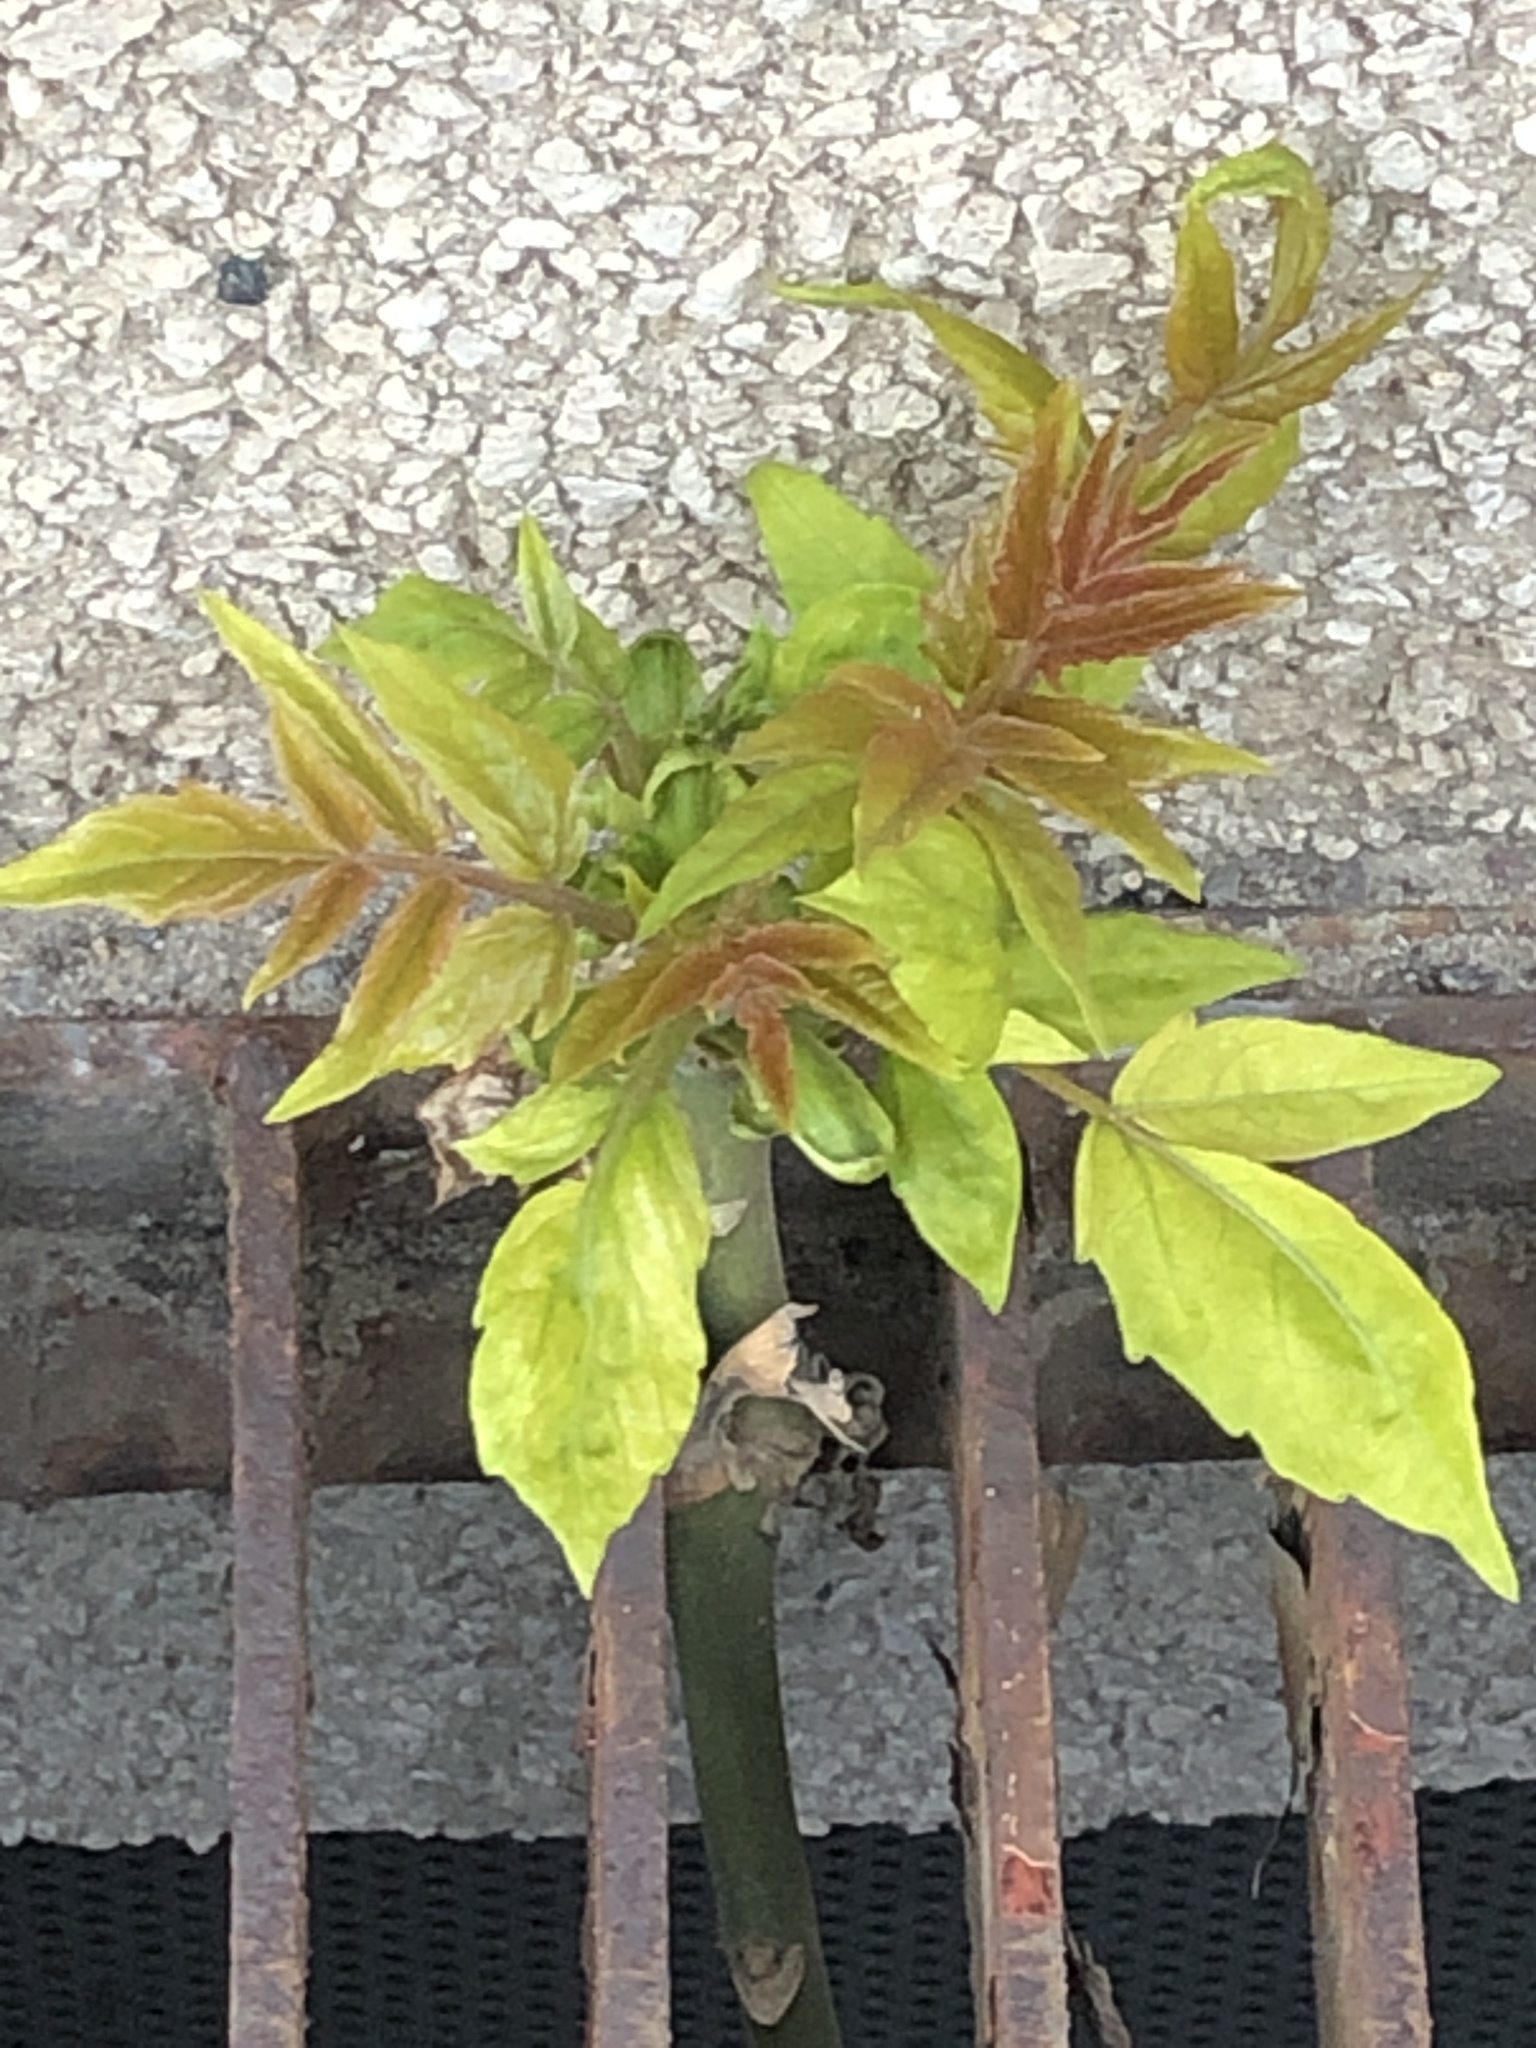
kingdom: Plantae
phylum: Tracheophyta
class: Magnoliopsida
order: Sapindales
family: Simaroubaceae
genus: Ailanthus
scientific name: Ailanthus altissima
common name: Tree-of-heaven
